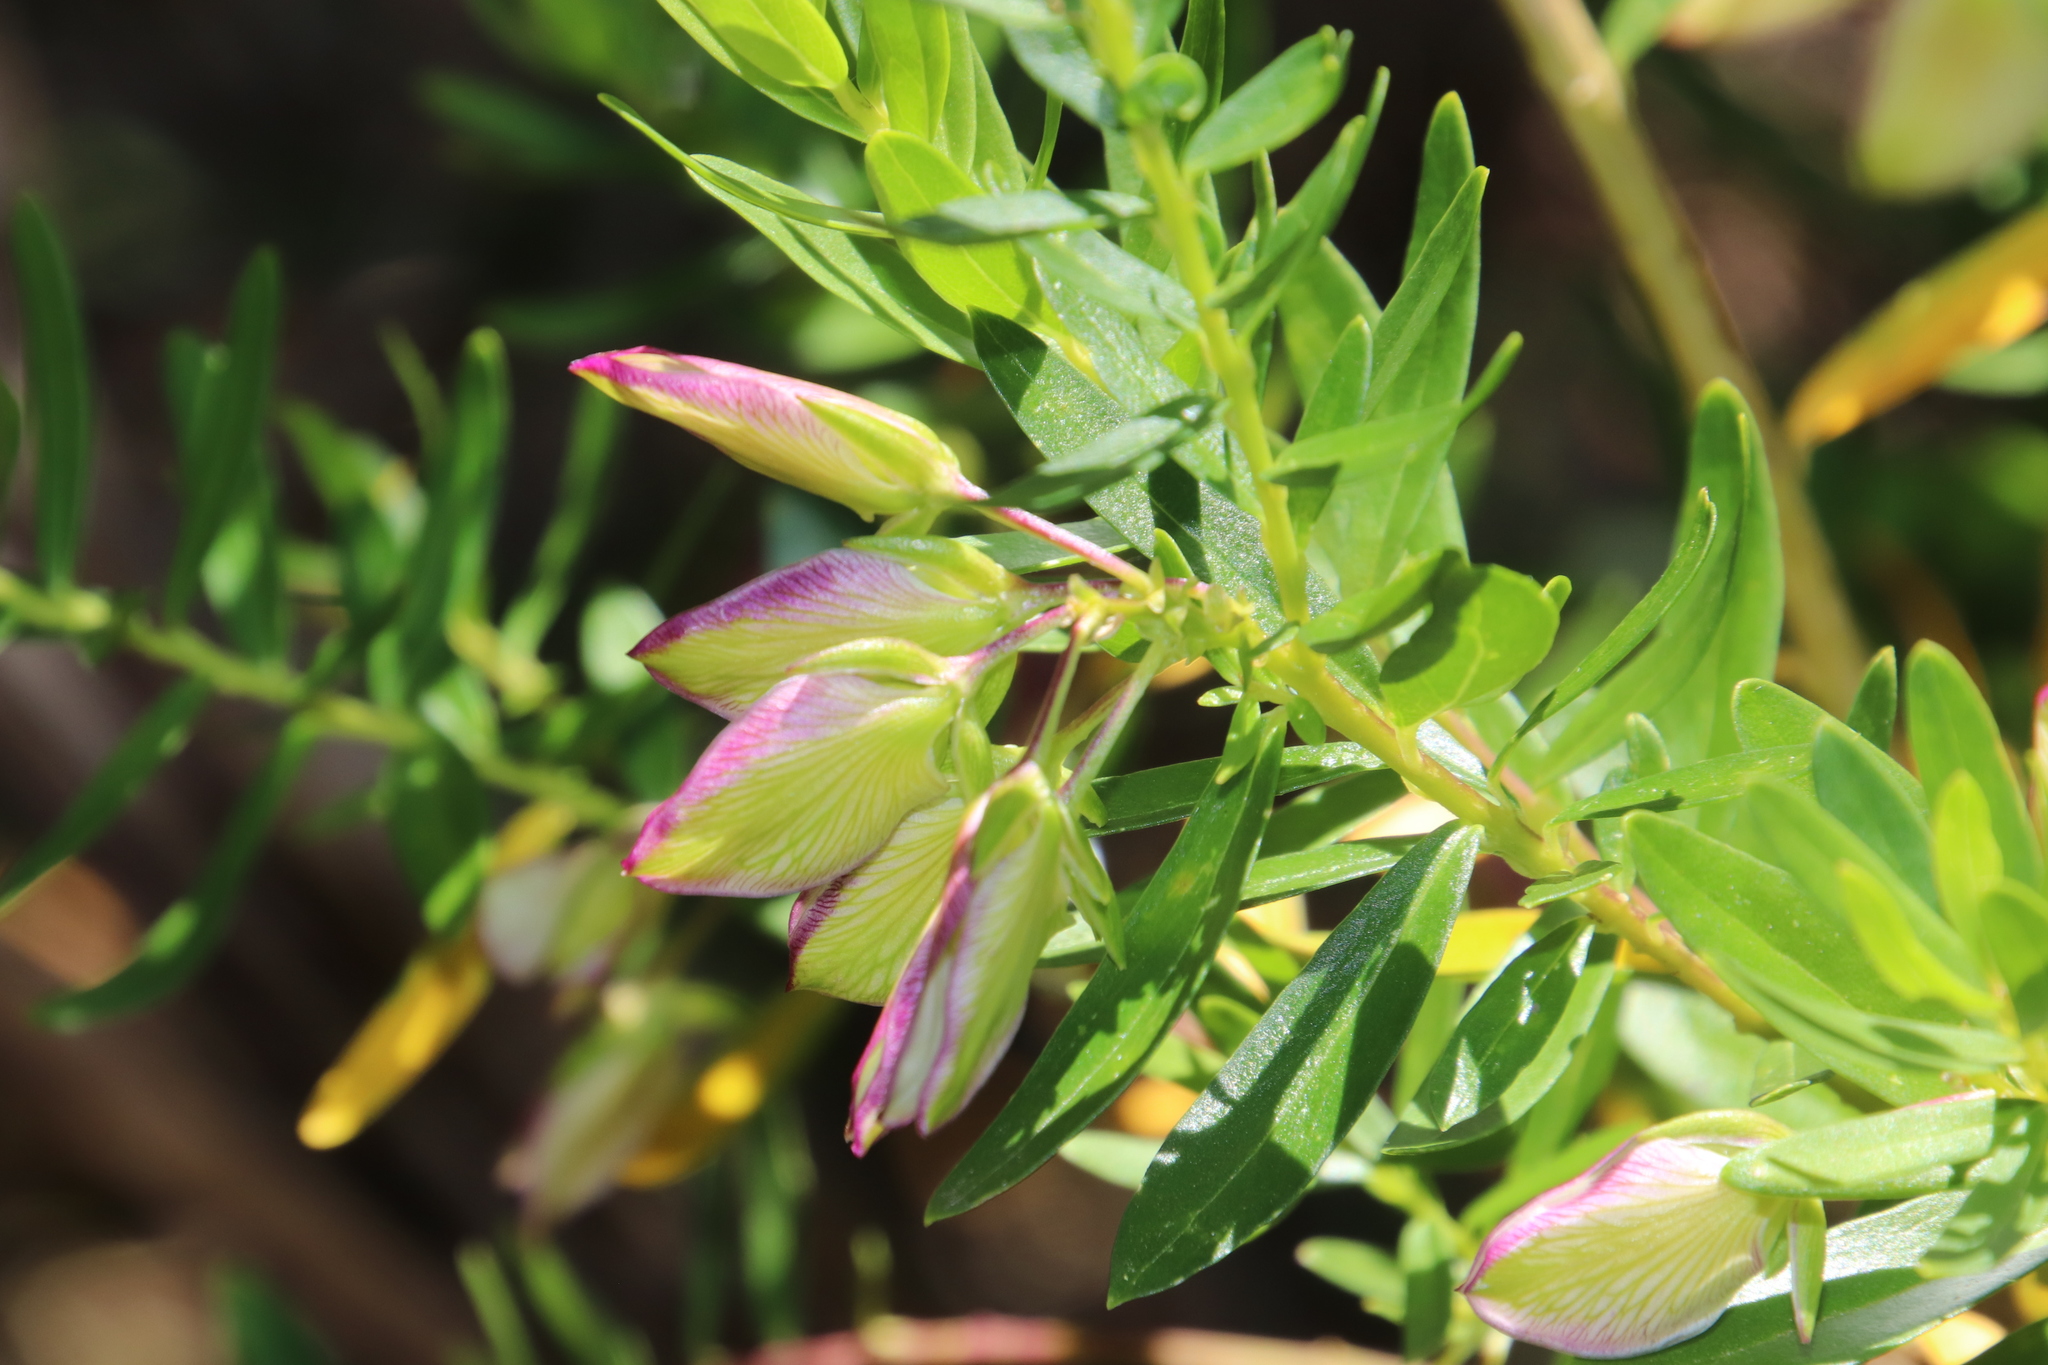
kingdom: Plantae
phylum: Tracheophyta
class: Magnoliopsida
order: Fabales
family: Polygalaceae
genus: Polygala
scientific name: Polygala myrtifolia
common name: Myrtle-leaf milkwort
